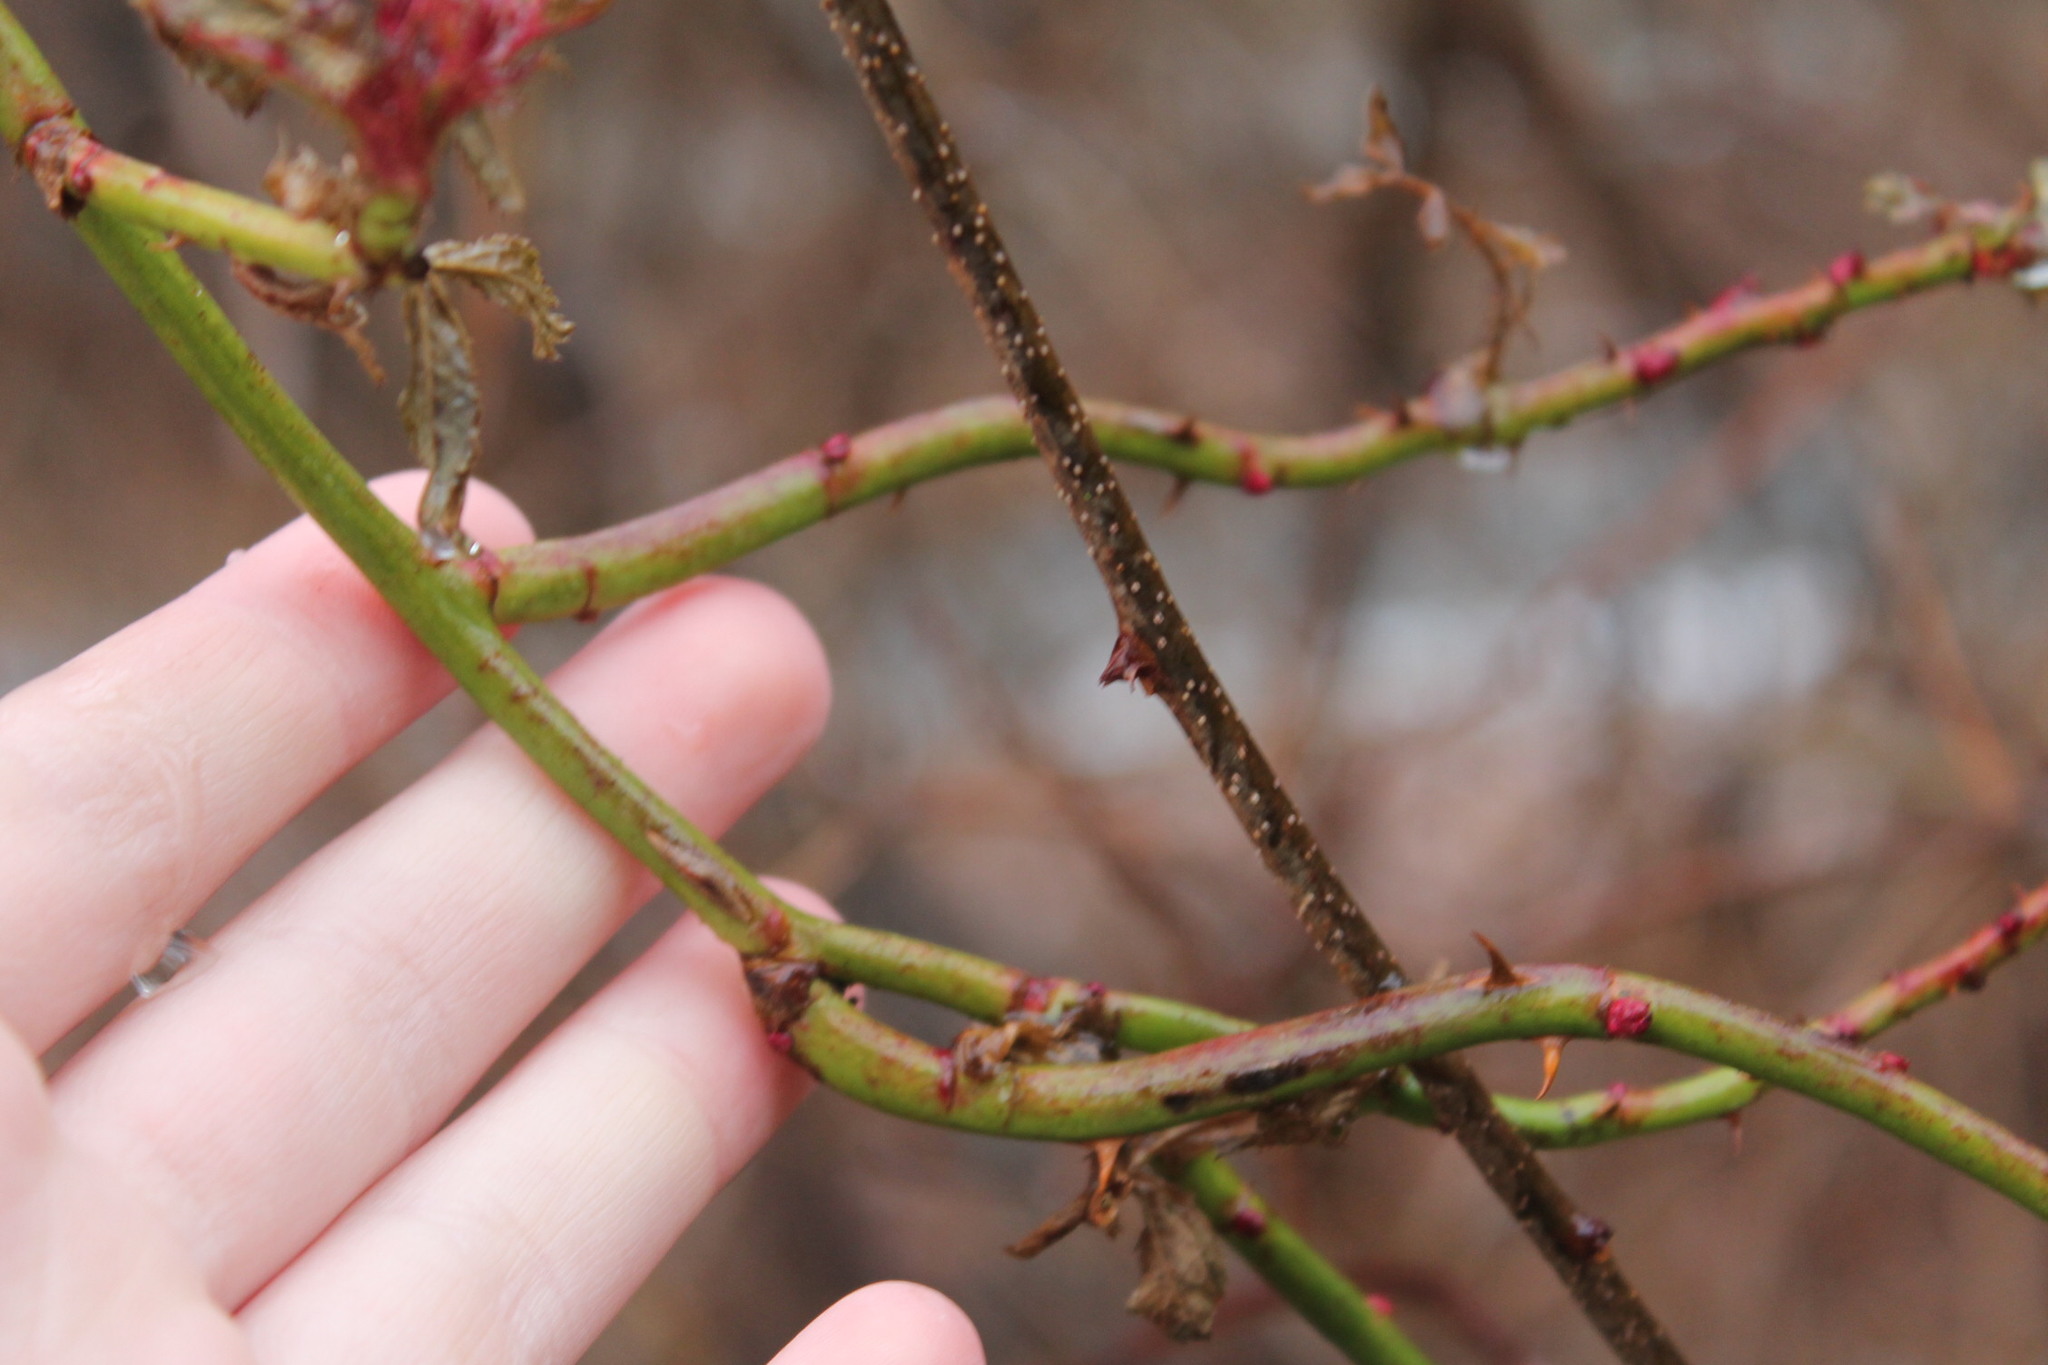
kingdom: Viruses
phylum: Negarnaviricota
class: Ellioviricetes
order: Bunyavirales
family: Fimoviridae
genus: Emaravirus
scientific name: Emaravirus rosae
